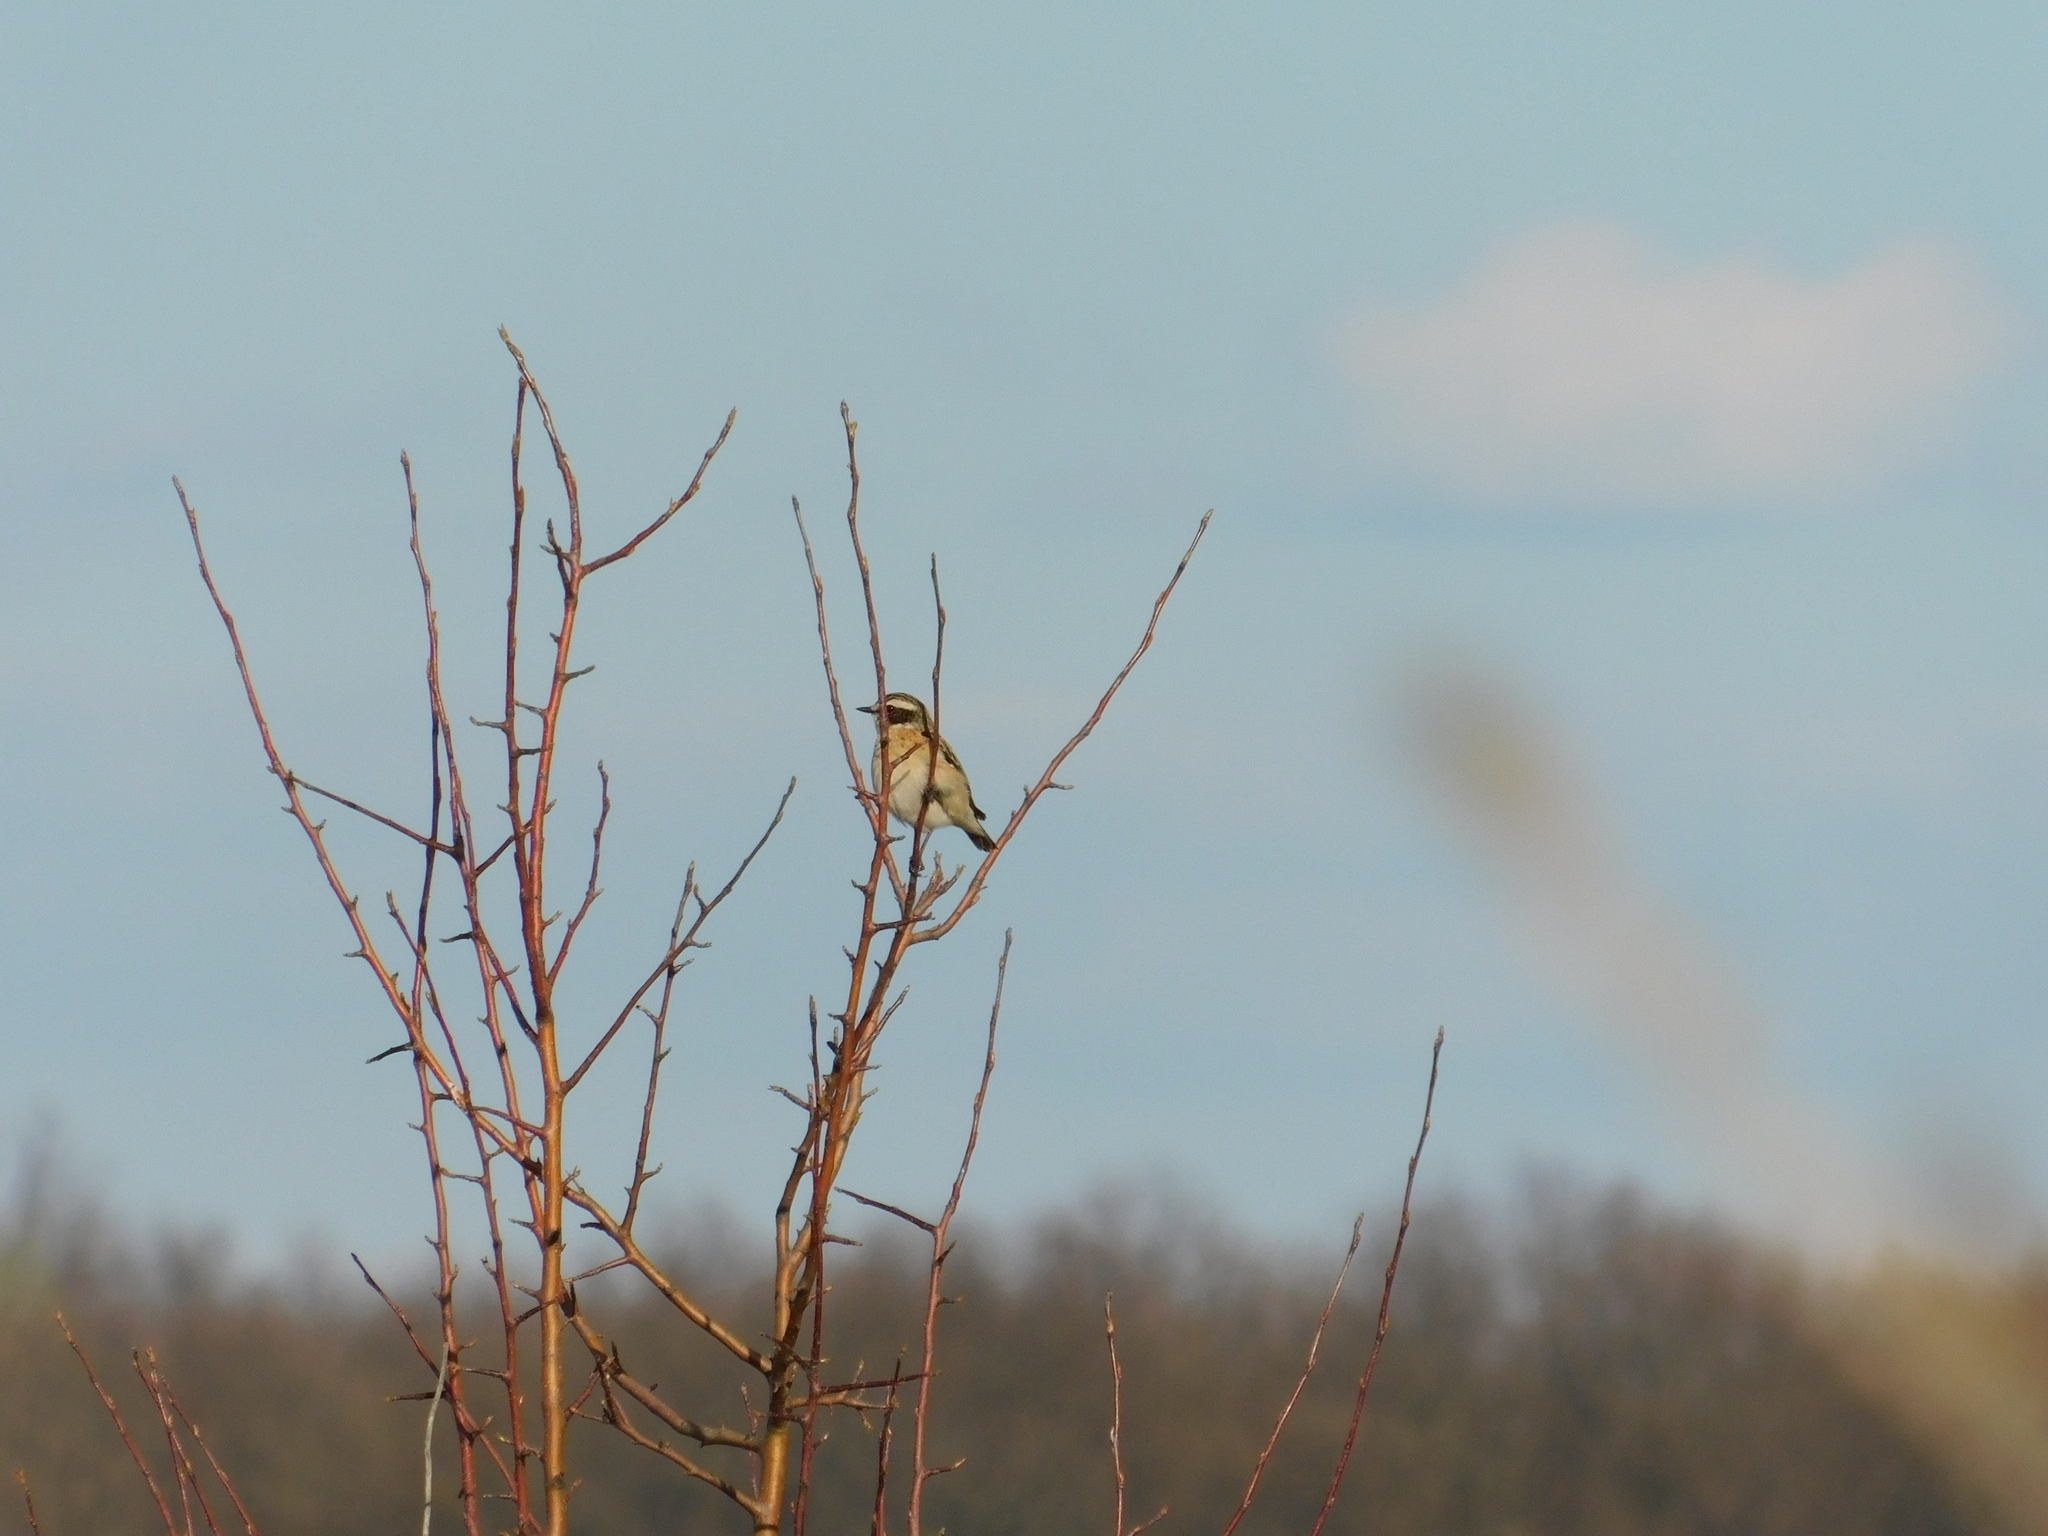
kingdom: Animalia
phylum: Chordata
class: Aves
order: Passeriformes
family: Muscicapidae
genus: Saxicola
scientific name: Saxicola rubetra
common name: Whinchat
